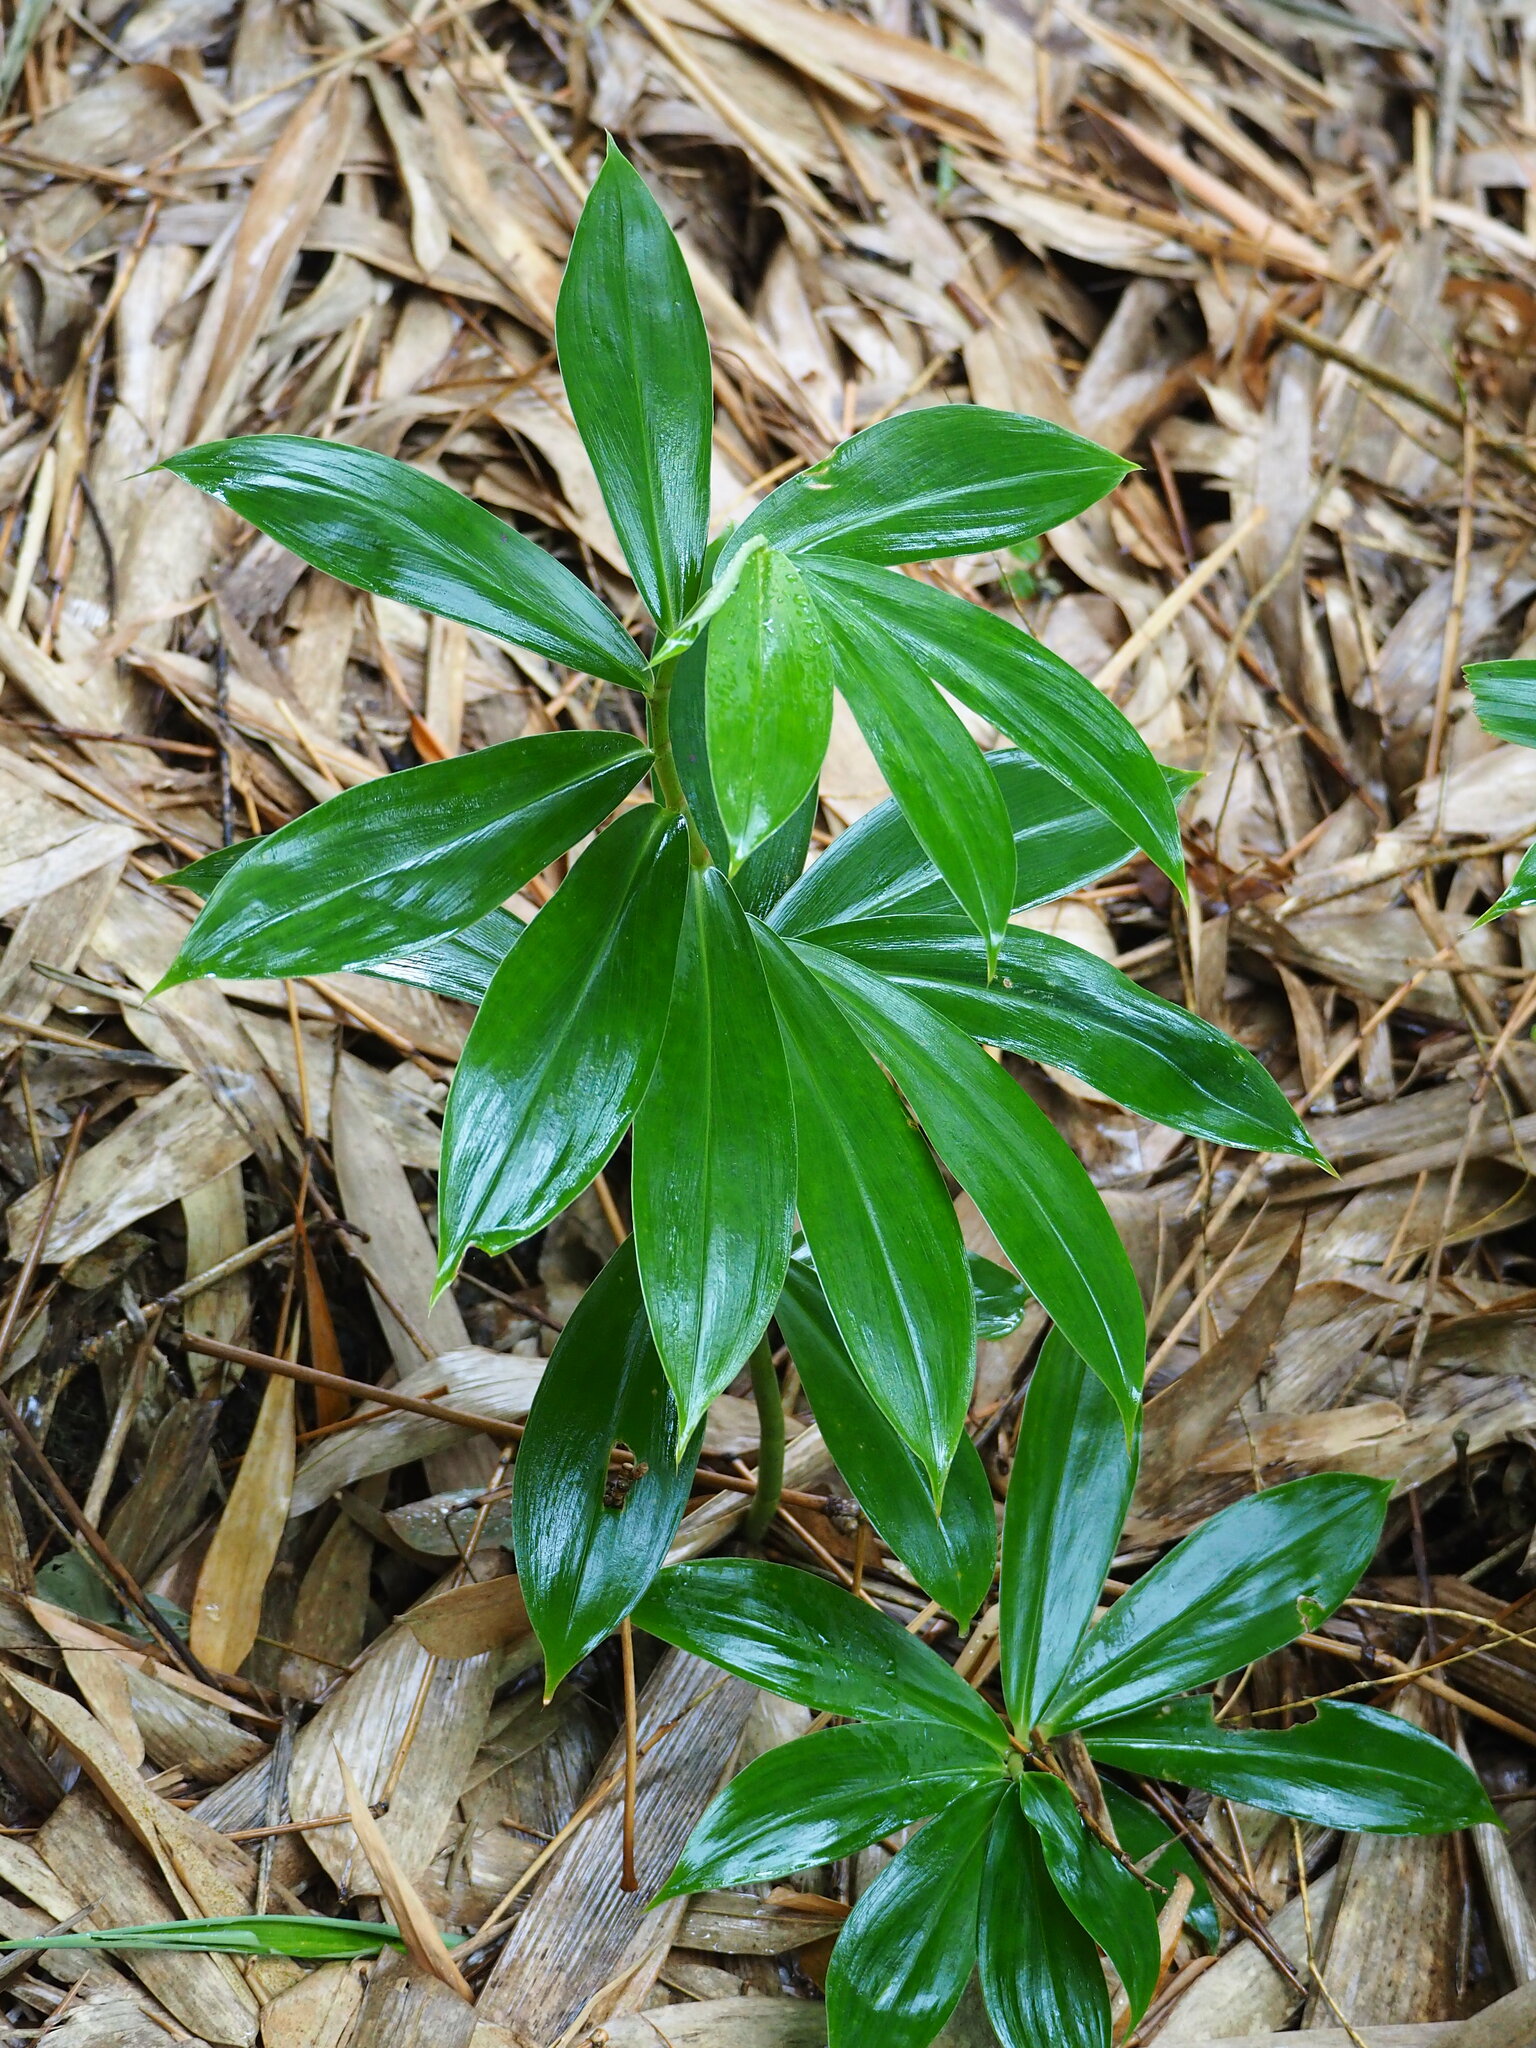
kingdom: Plantae
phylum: Tracheophyta
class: Liliopsida
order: Zingiberales
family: Costaceae
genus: Hellenia
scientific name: Hellenia speciosa
